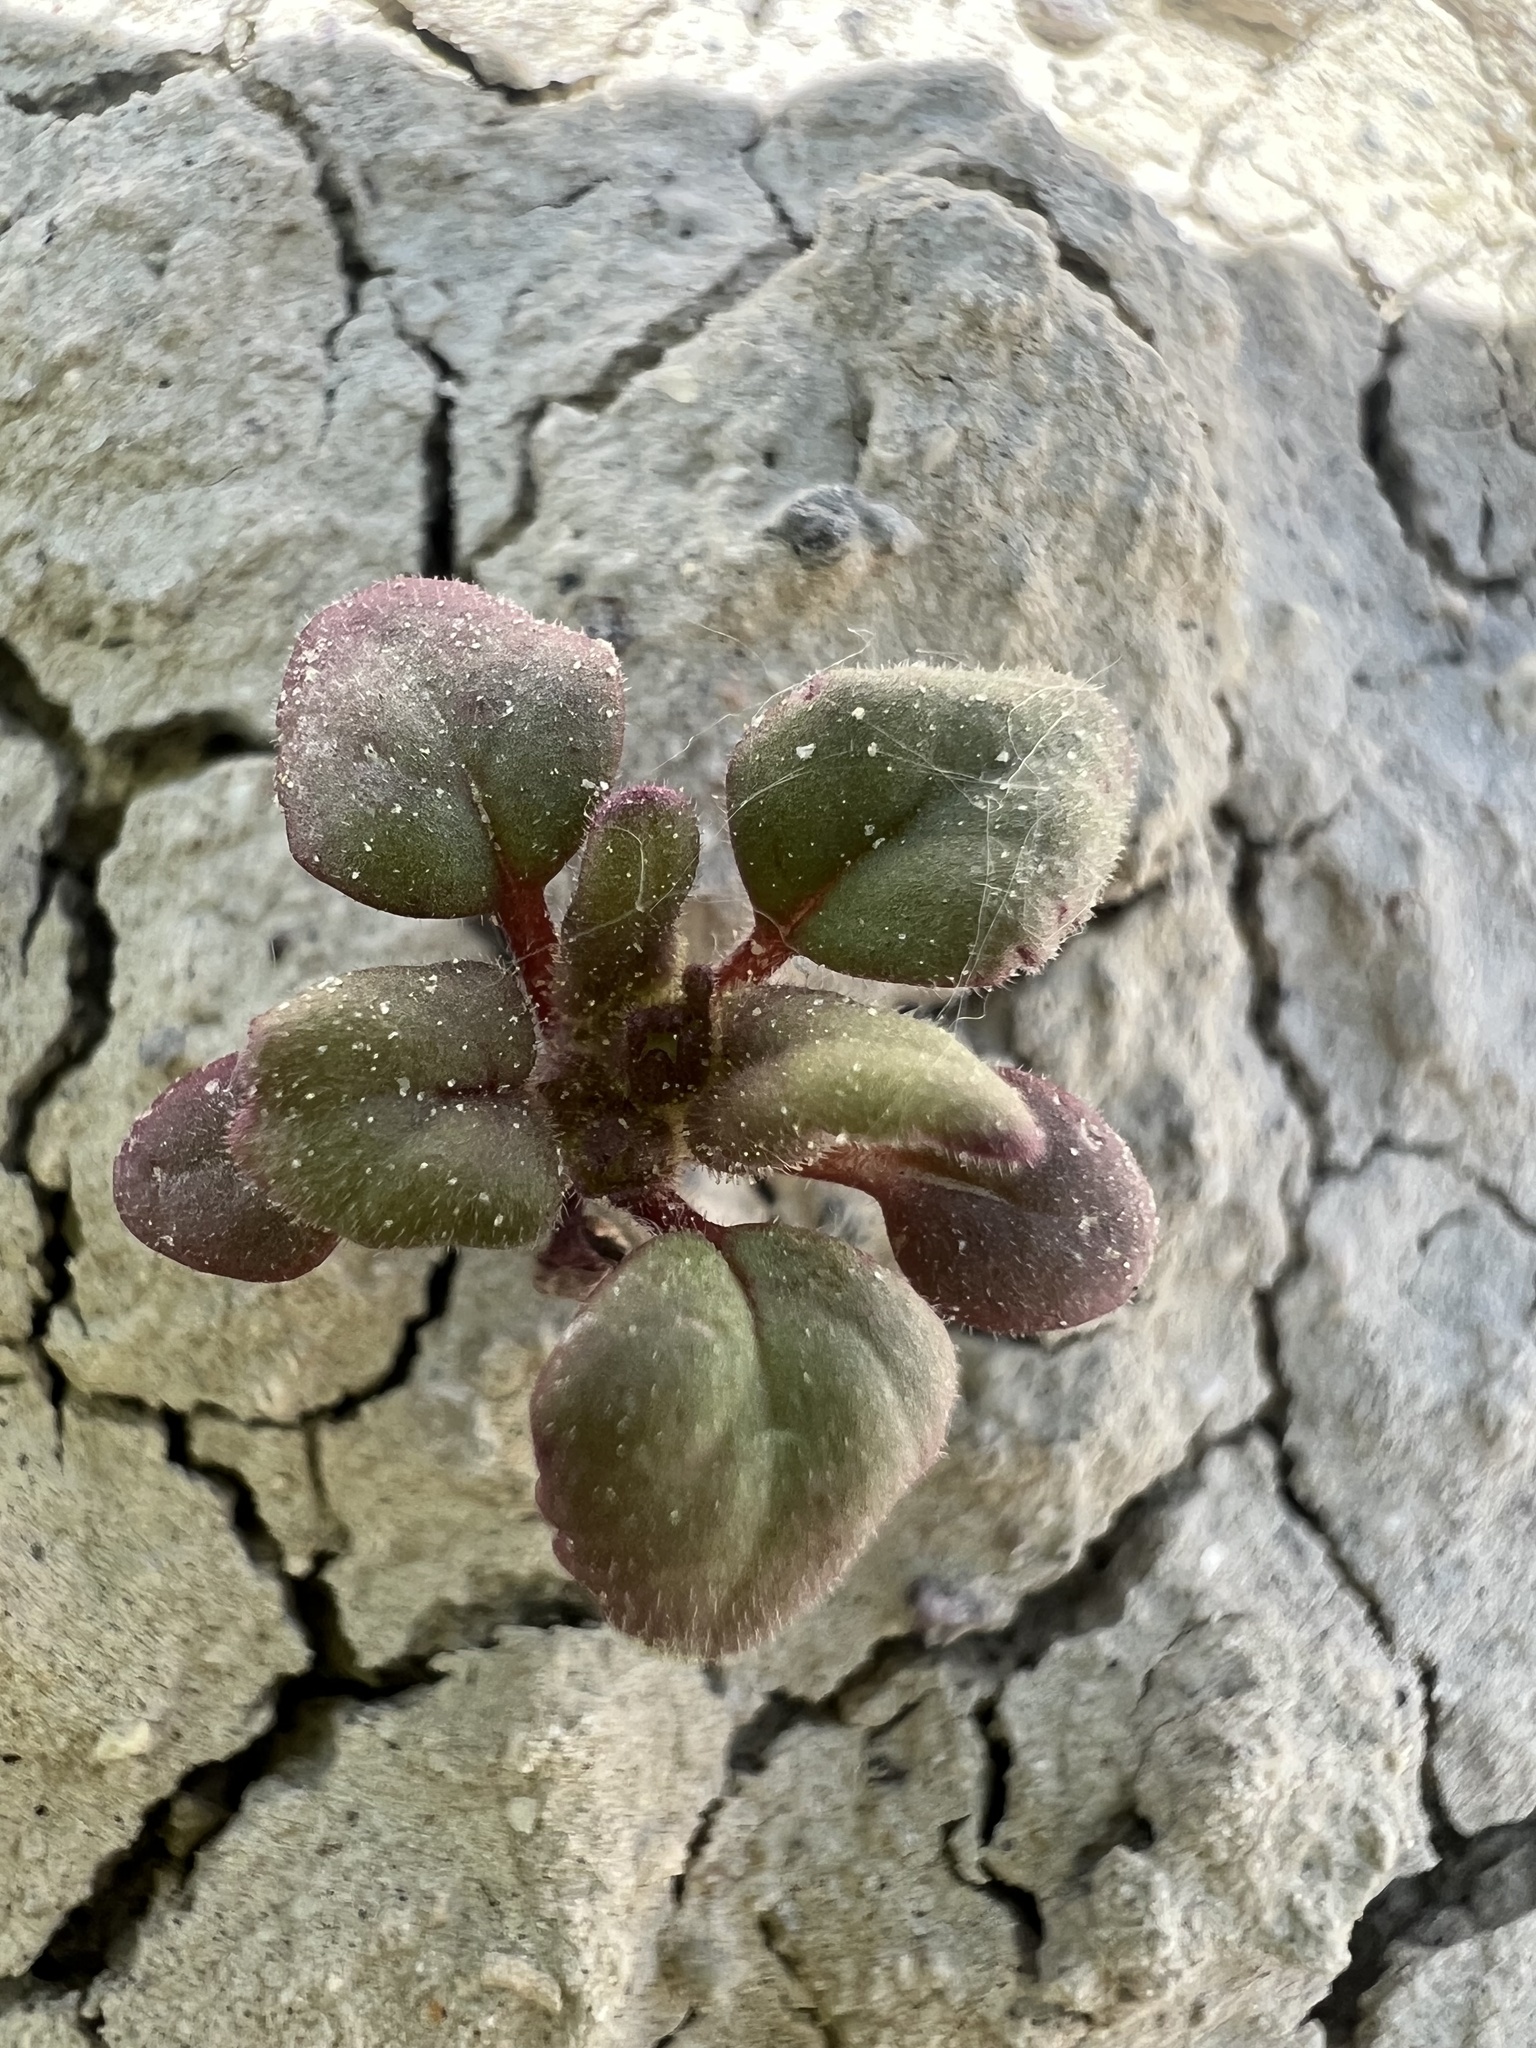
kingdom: Plantae
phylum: Tracheophyta
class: Magnoliopsida
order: Boraginales
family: Hydrophyllaceae
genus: Phacelia
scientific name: Phacelia gina-glenneae
